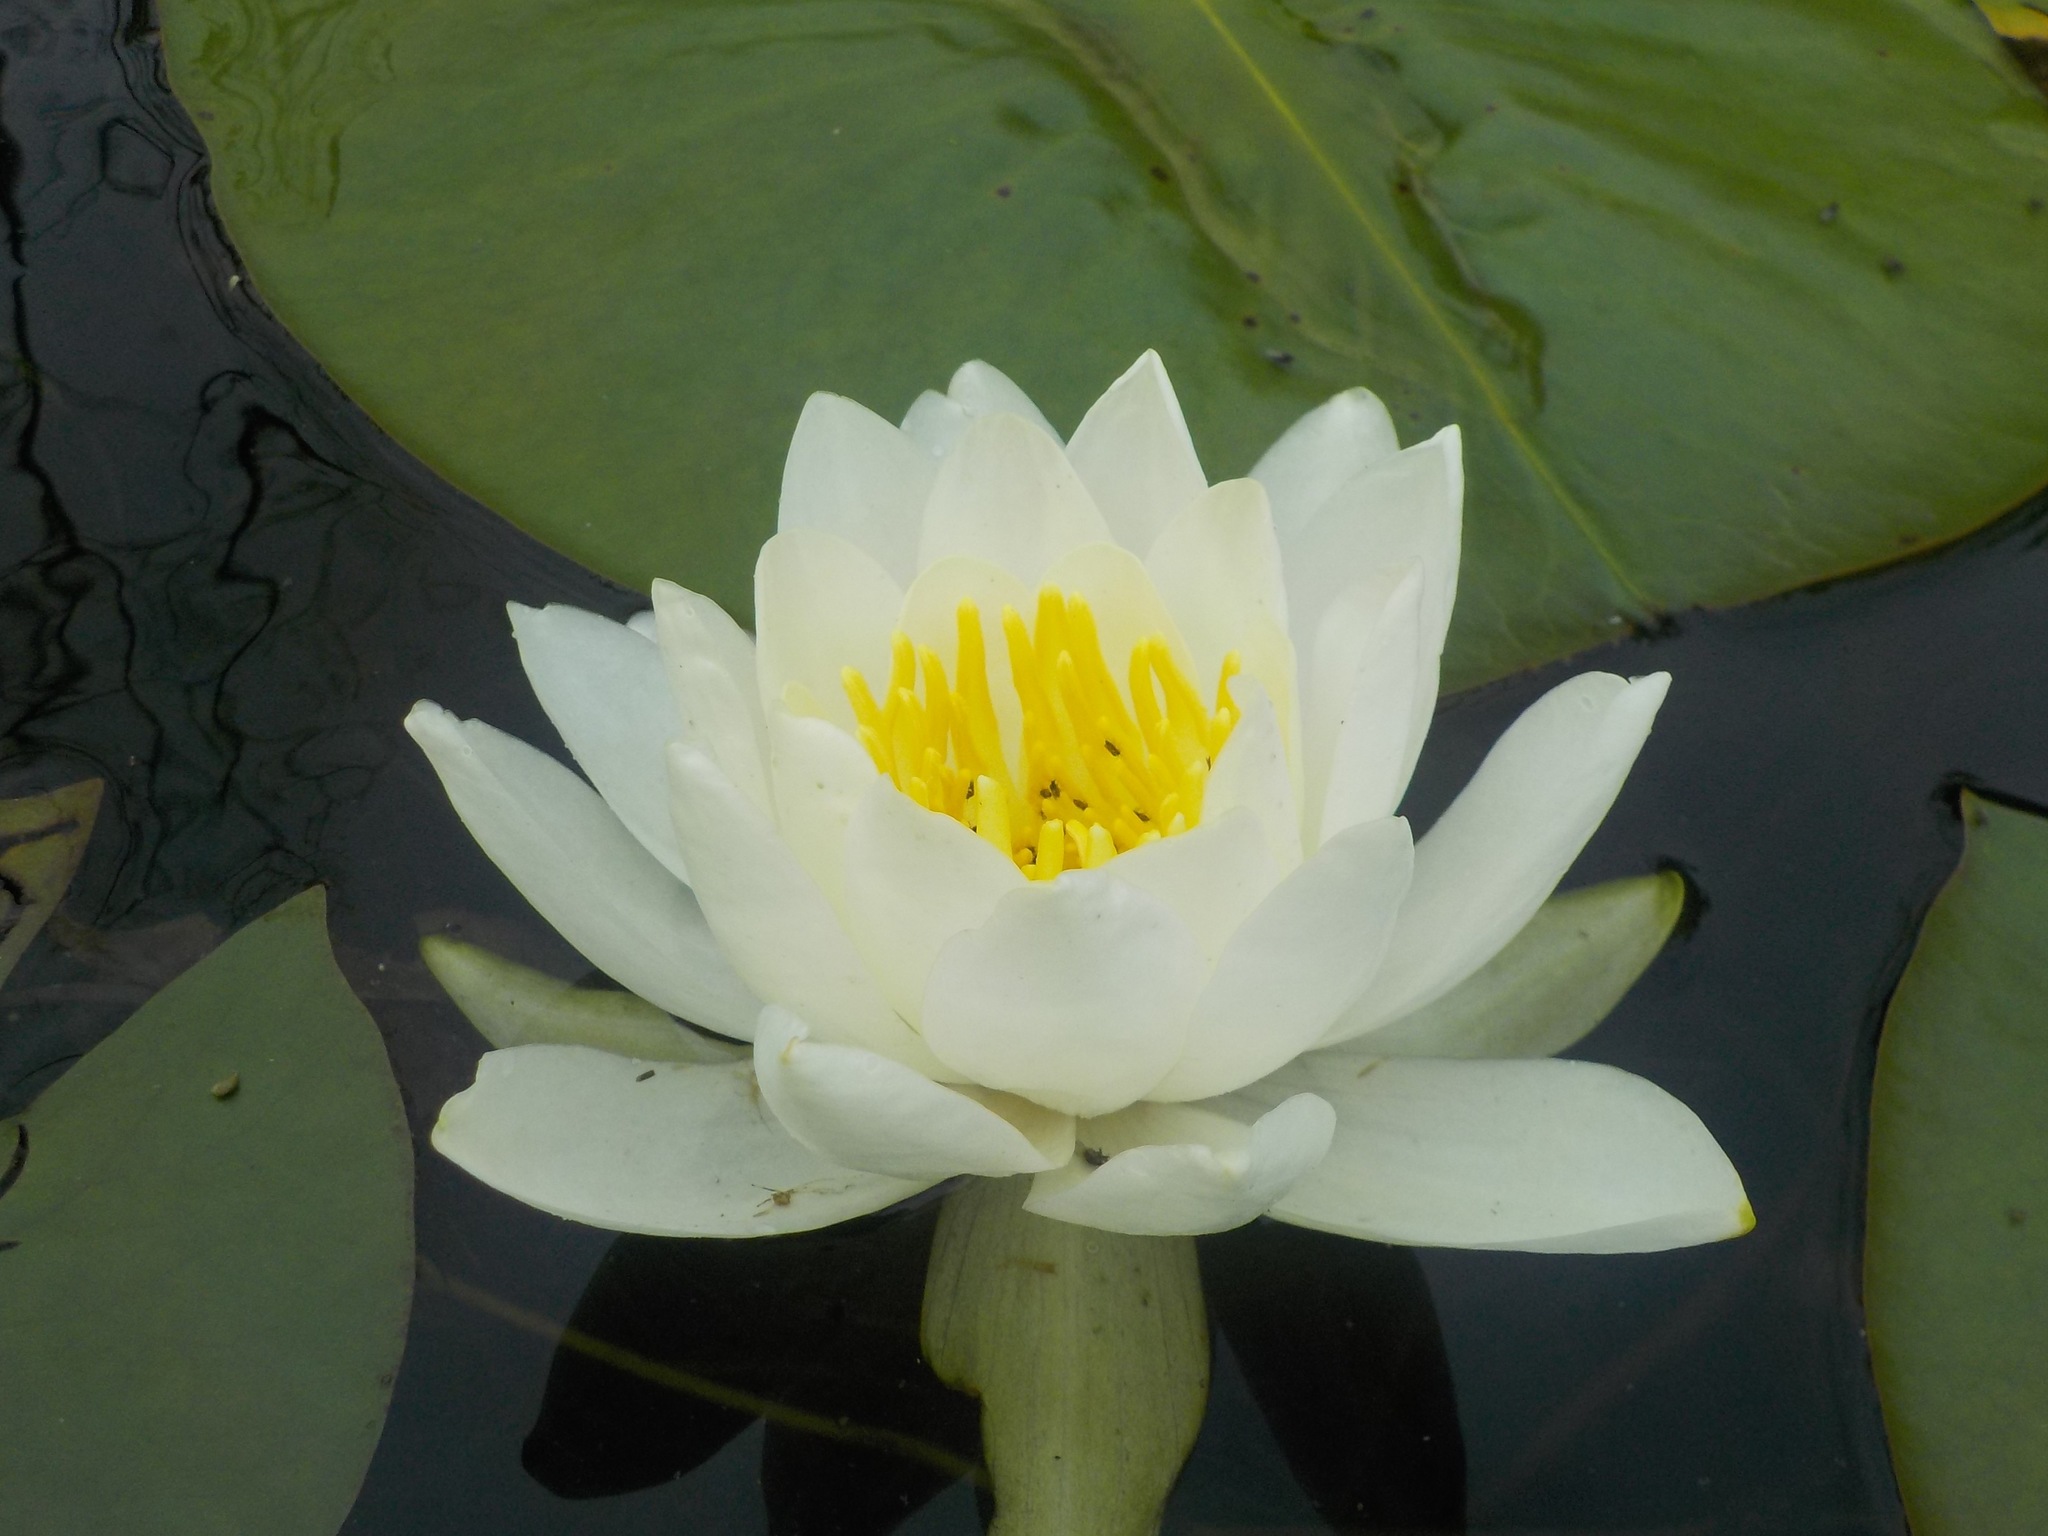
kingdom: Plantae
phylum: Tracheophyta
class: Magnoliopsida
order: Nymphaeales
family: Nymphaeaceae
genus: Nymphaea
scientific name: Nymphaea odorata
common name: Fragrant water-lily
